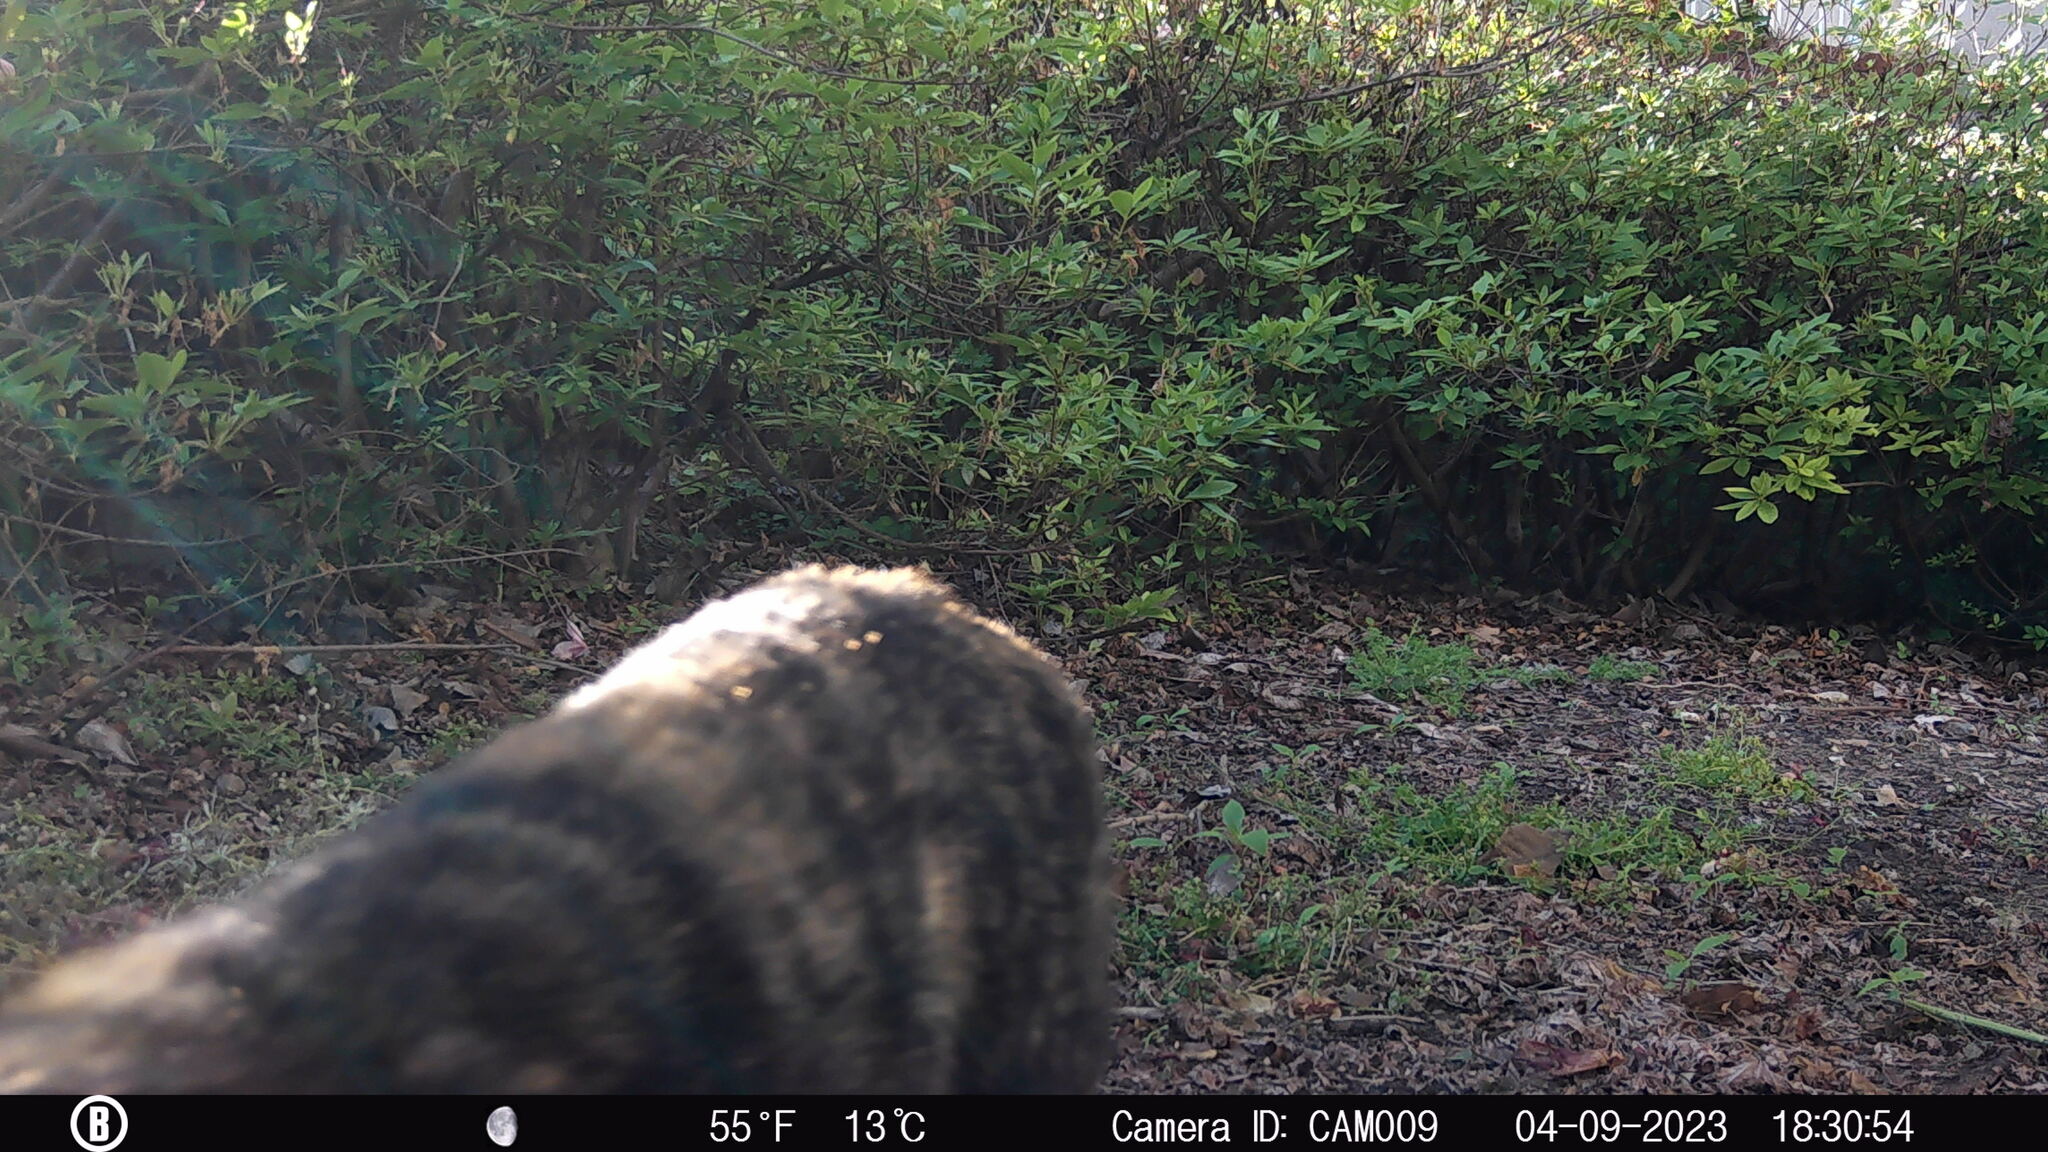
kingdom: Animalia
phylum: Chordata
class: Mammalia
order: Carnivora
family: Felidae
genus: Felis
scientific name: Felis catus
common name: Domestic cat
